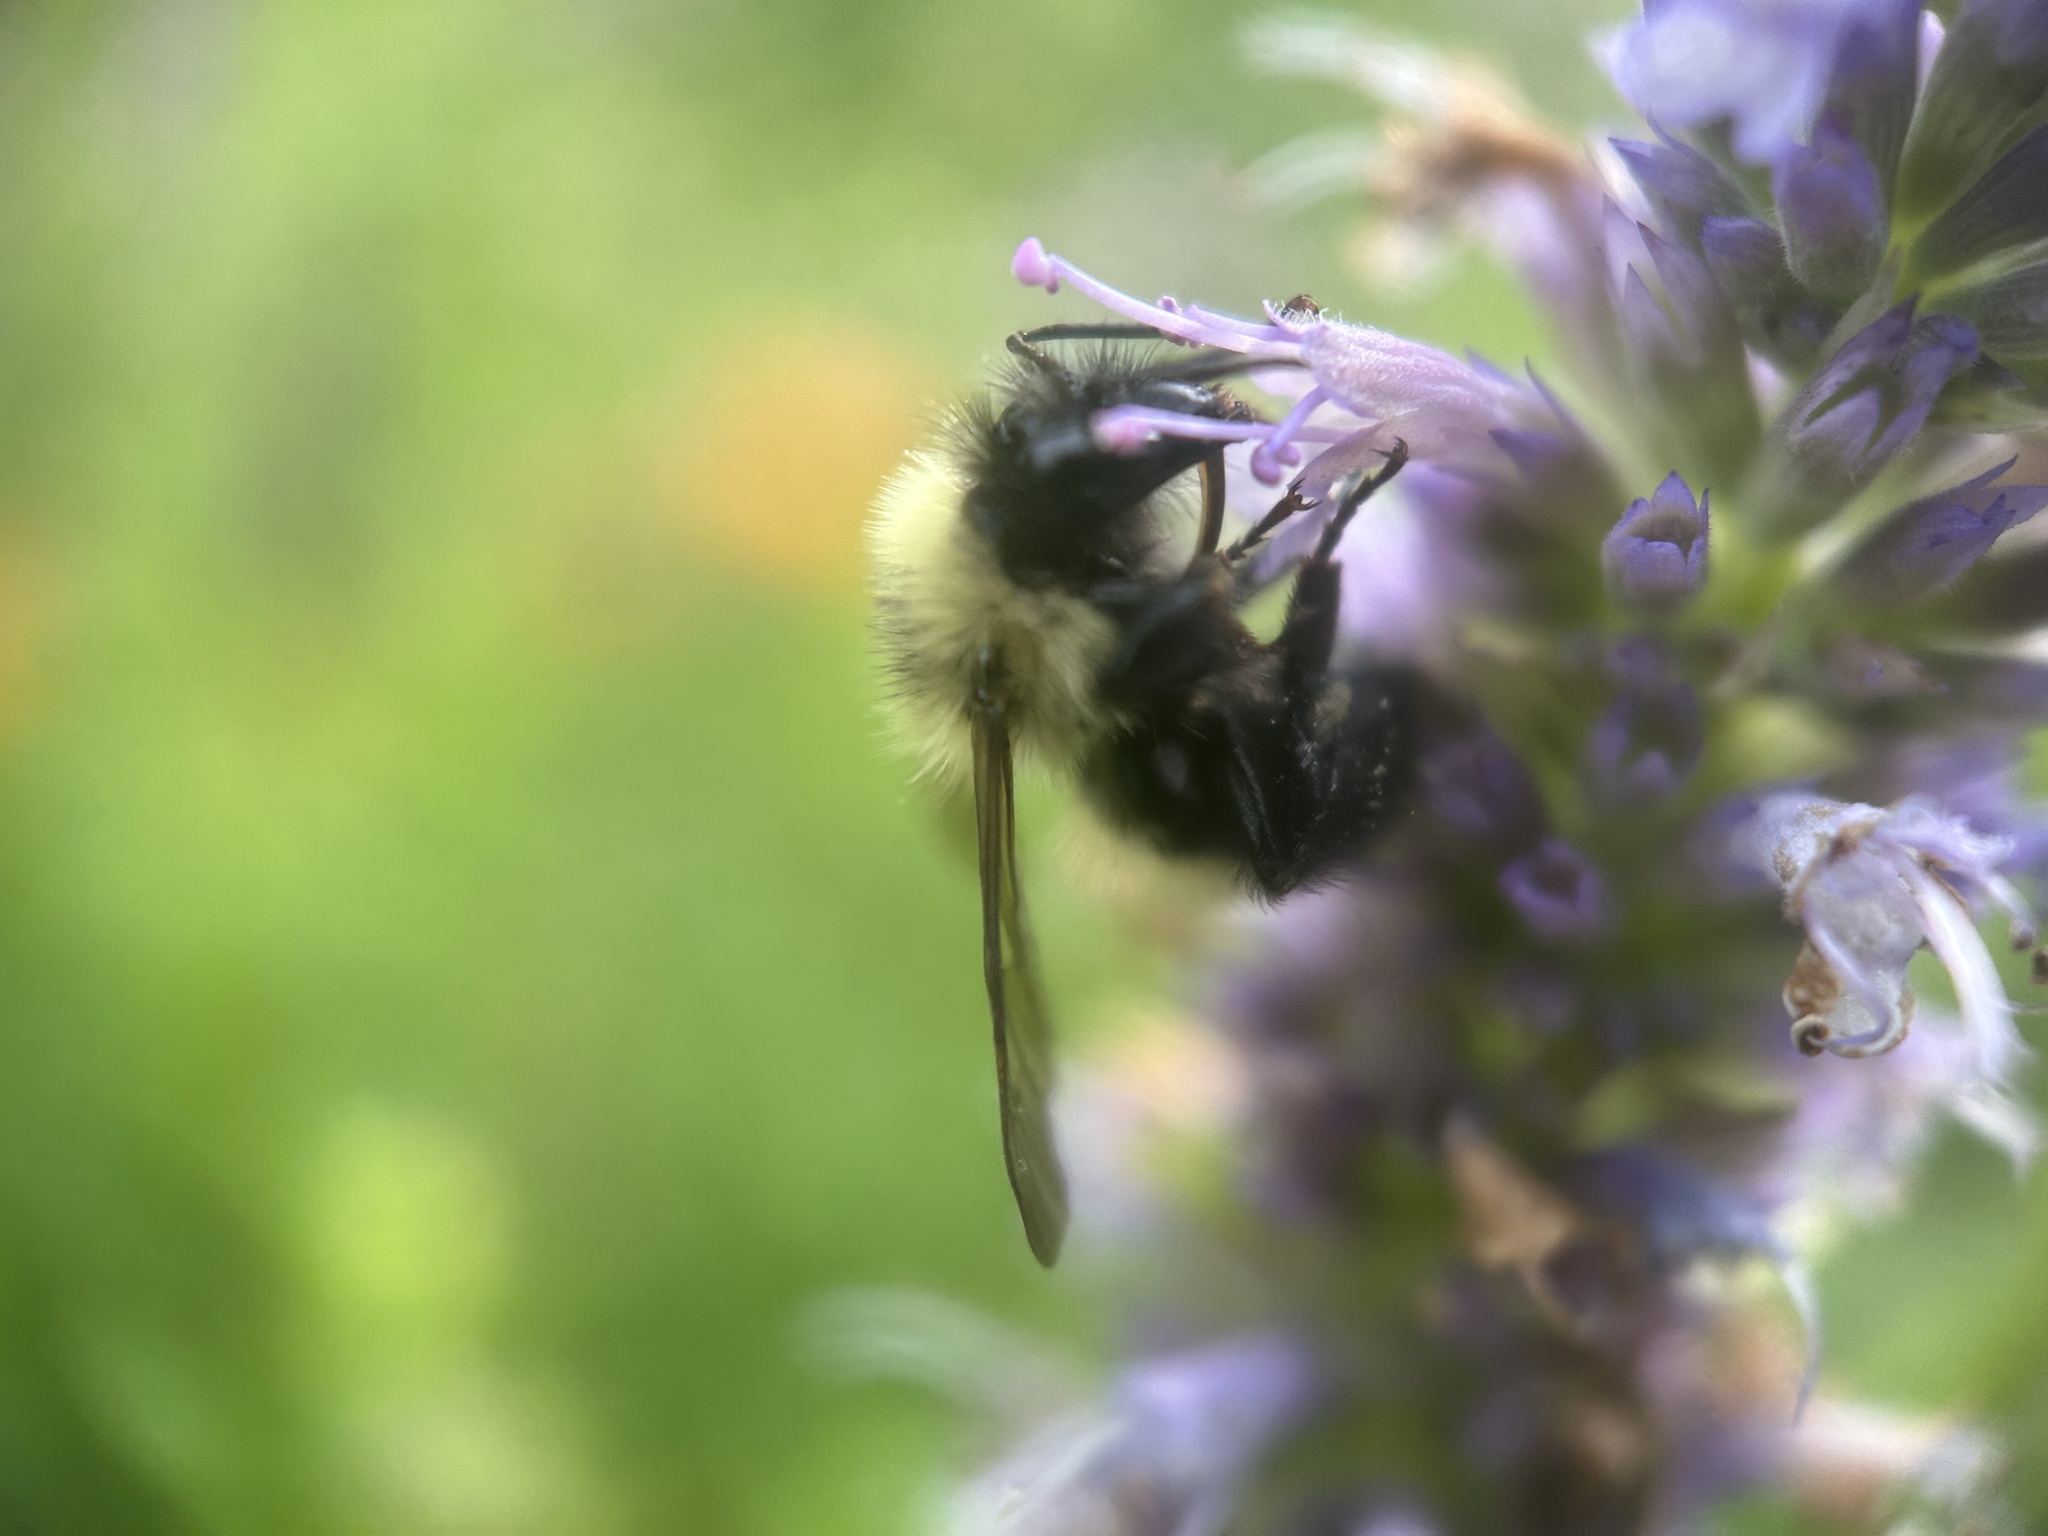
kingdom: Animalia
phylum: Arthropoda
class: Insecta
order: Hymenoptera
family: Apidae
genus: Bombus
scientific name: Bombus vagans
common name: Half-black bumble bee
